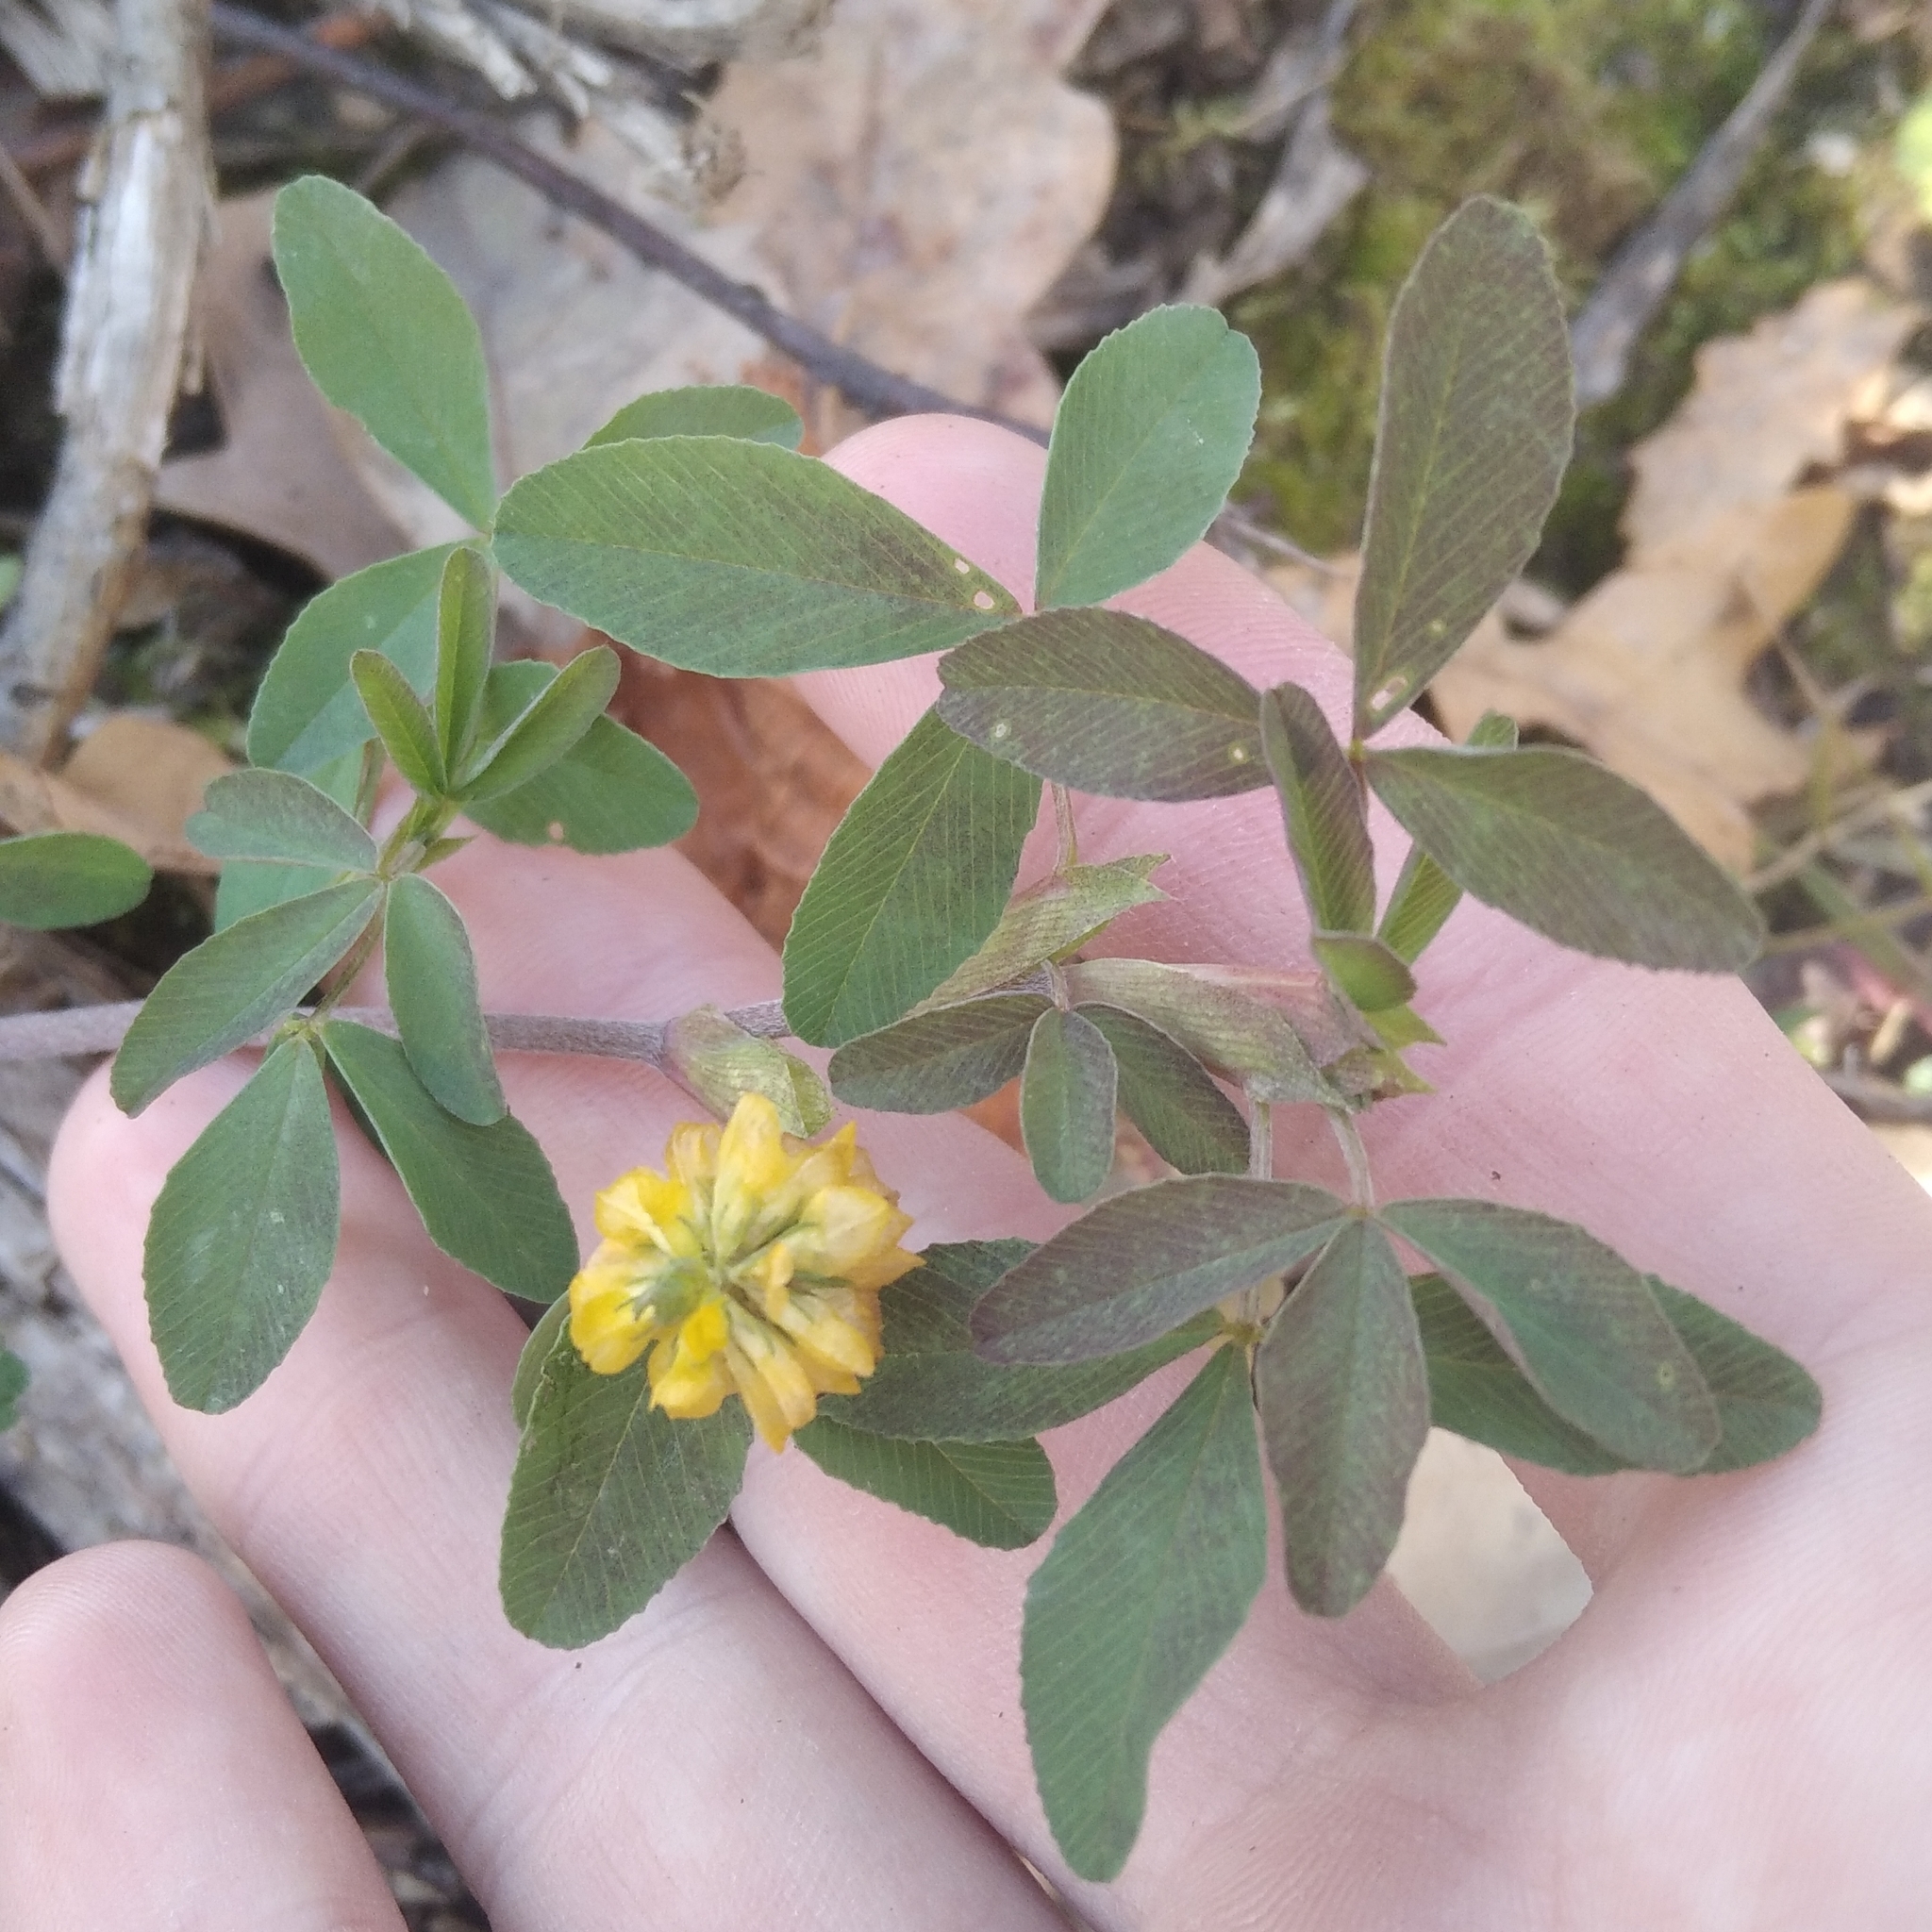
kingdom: Plantae
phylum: Tracheophyta
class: Magnoliopsida
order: Fabales
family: Fabaceae
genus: Trifolium
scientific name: Trifolium aureum
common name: Golden clover
